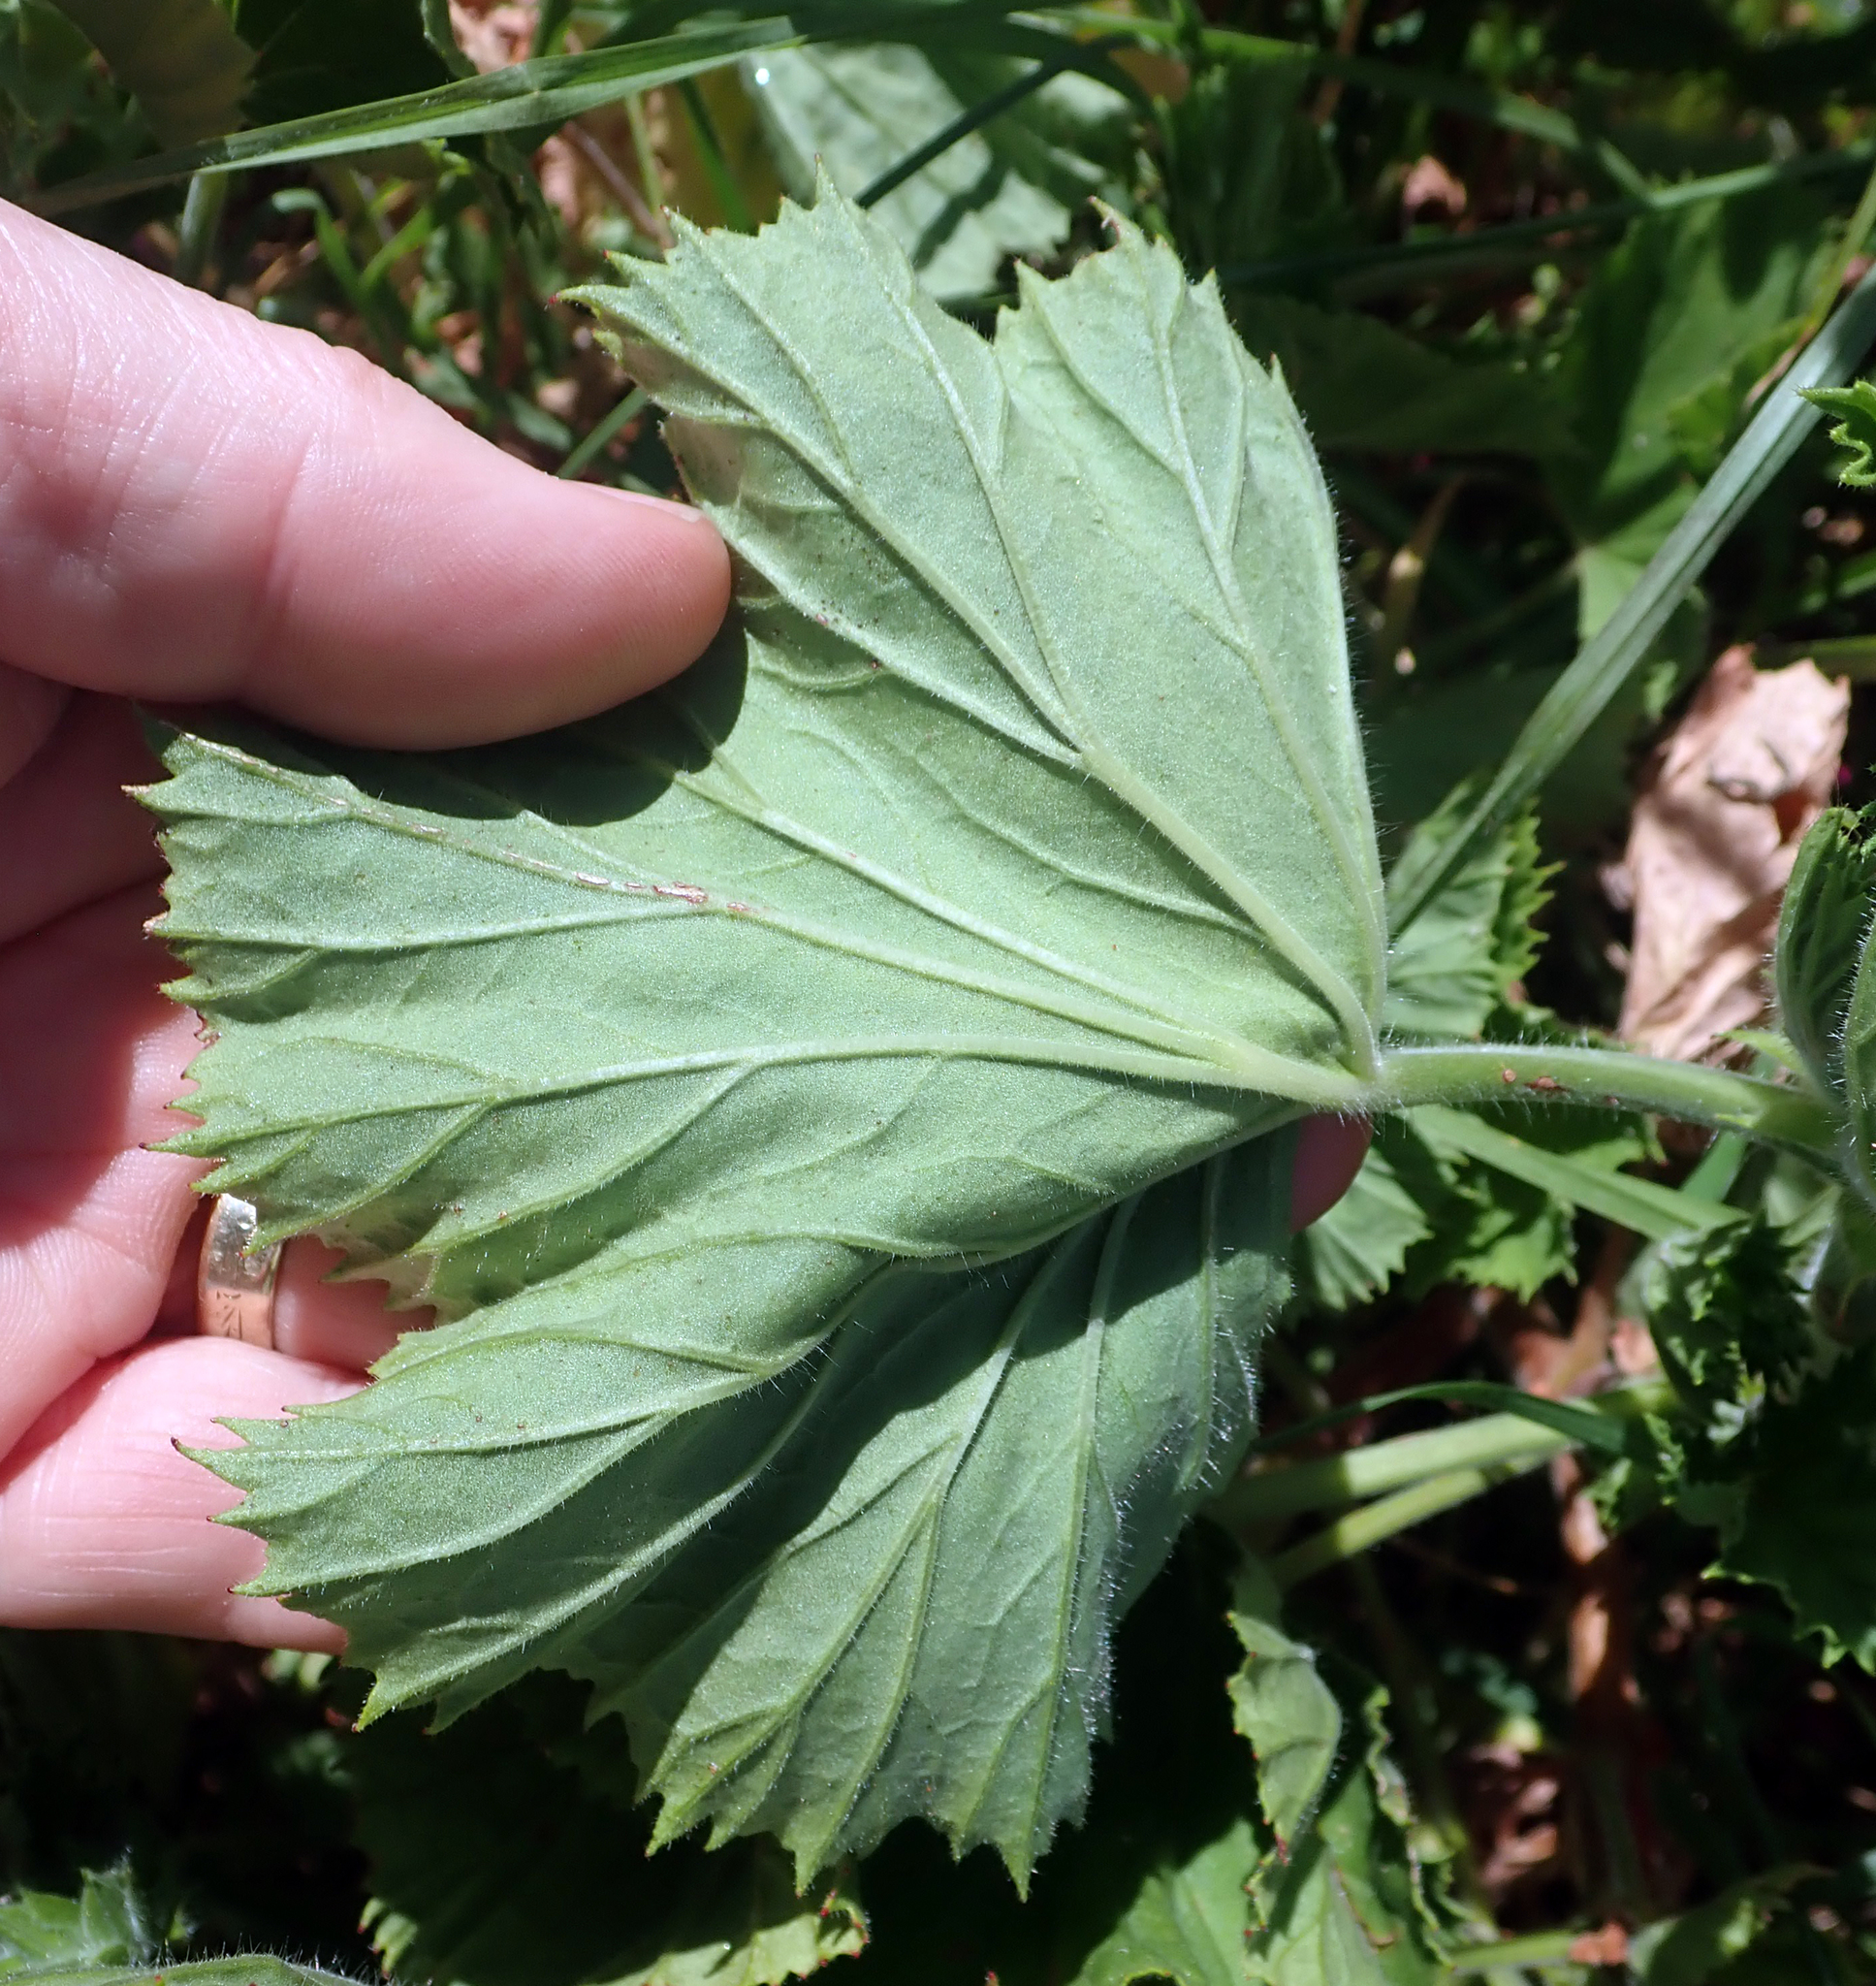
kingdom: Plantae
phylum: Tracheophyta
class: Magnoliopsida
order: Geraniales
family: Geraniaceae
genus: Pelargonium
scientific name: Pelargonium domesticum
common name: Regal pelargonium
